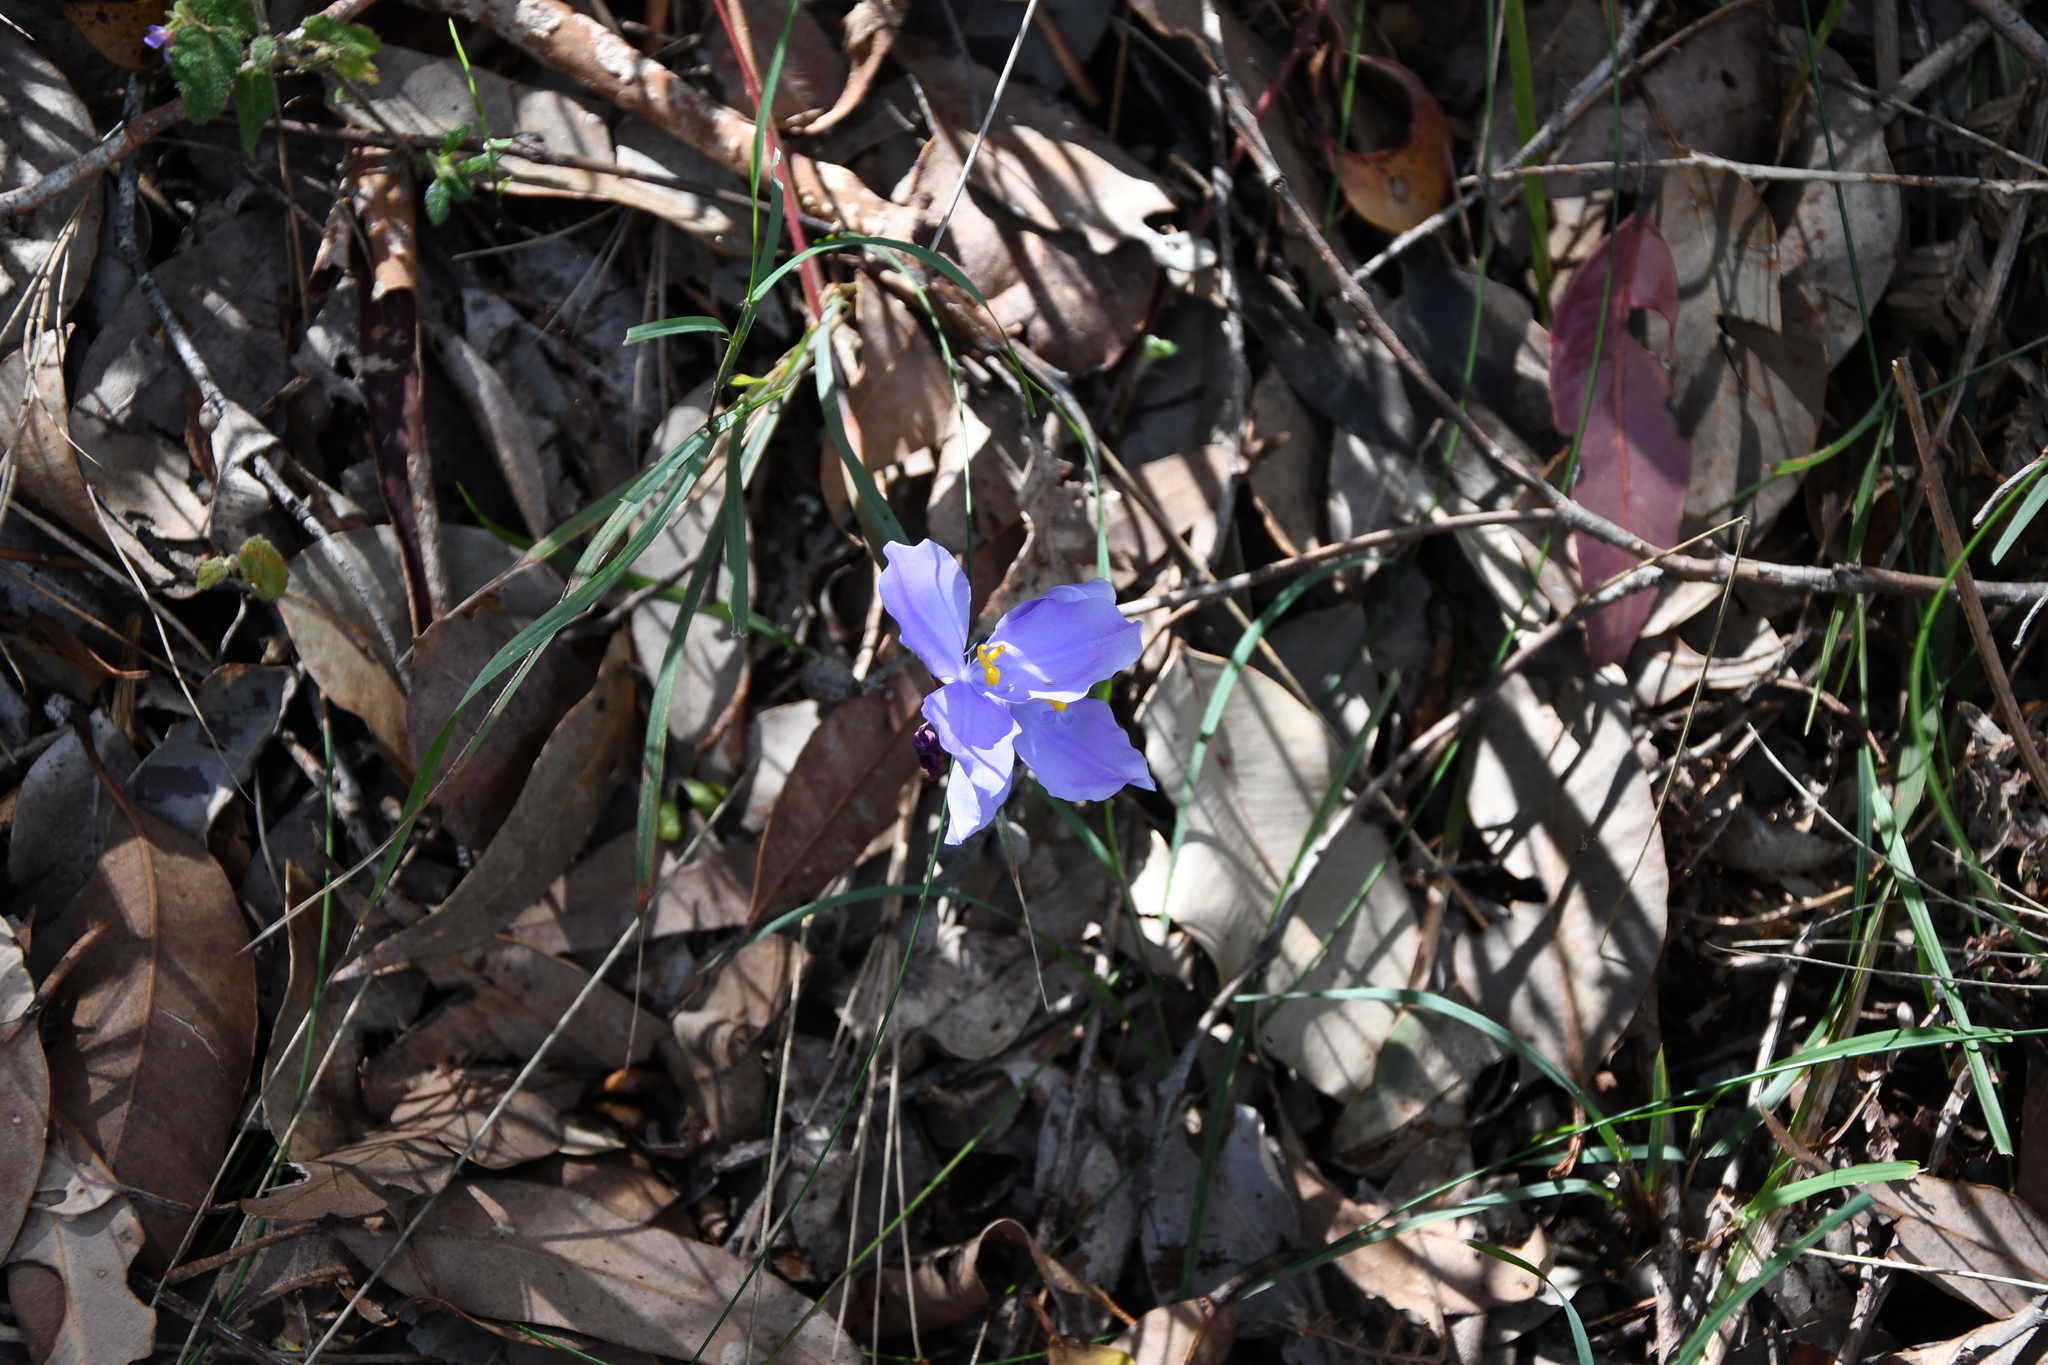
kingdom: Plantae
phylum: Tracheophyta
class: Liliopsida
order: Asparagales
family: Iridaceae
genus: Patersonia
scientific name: Patersonia umbrosa
